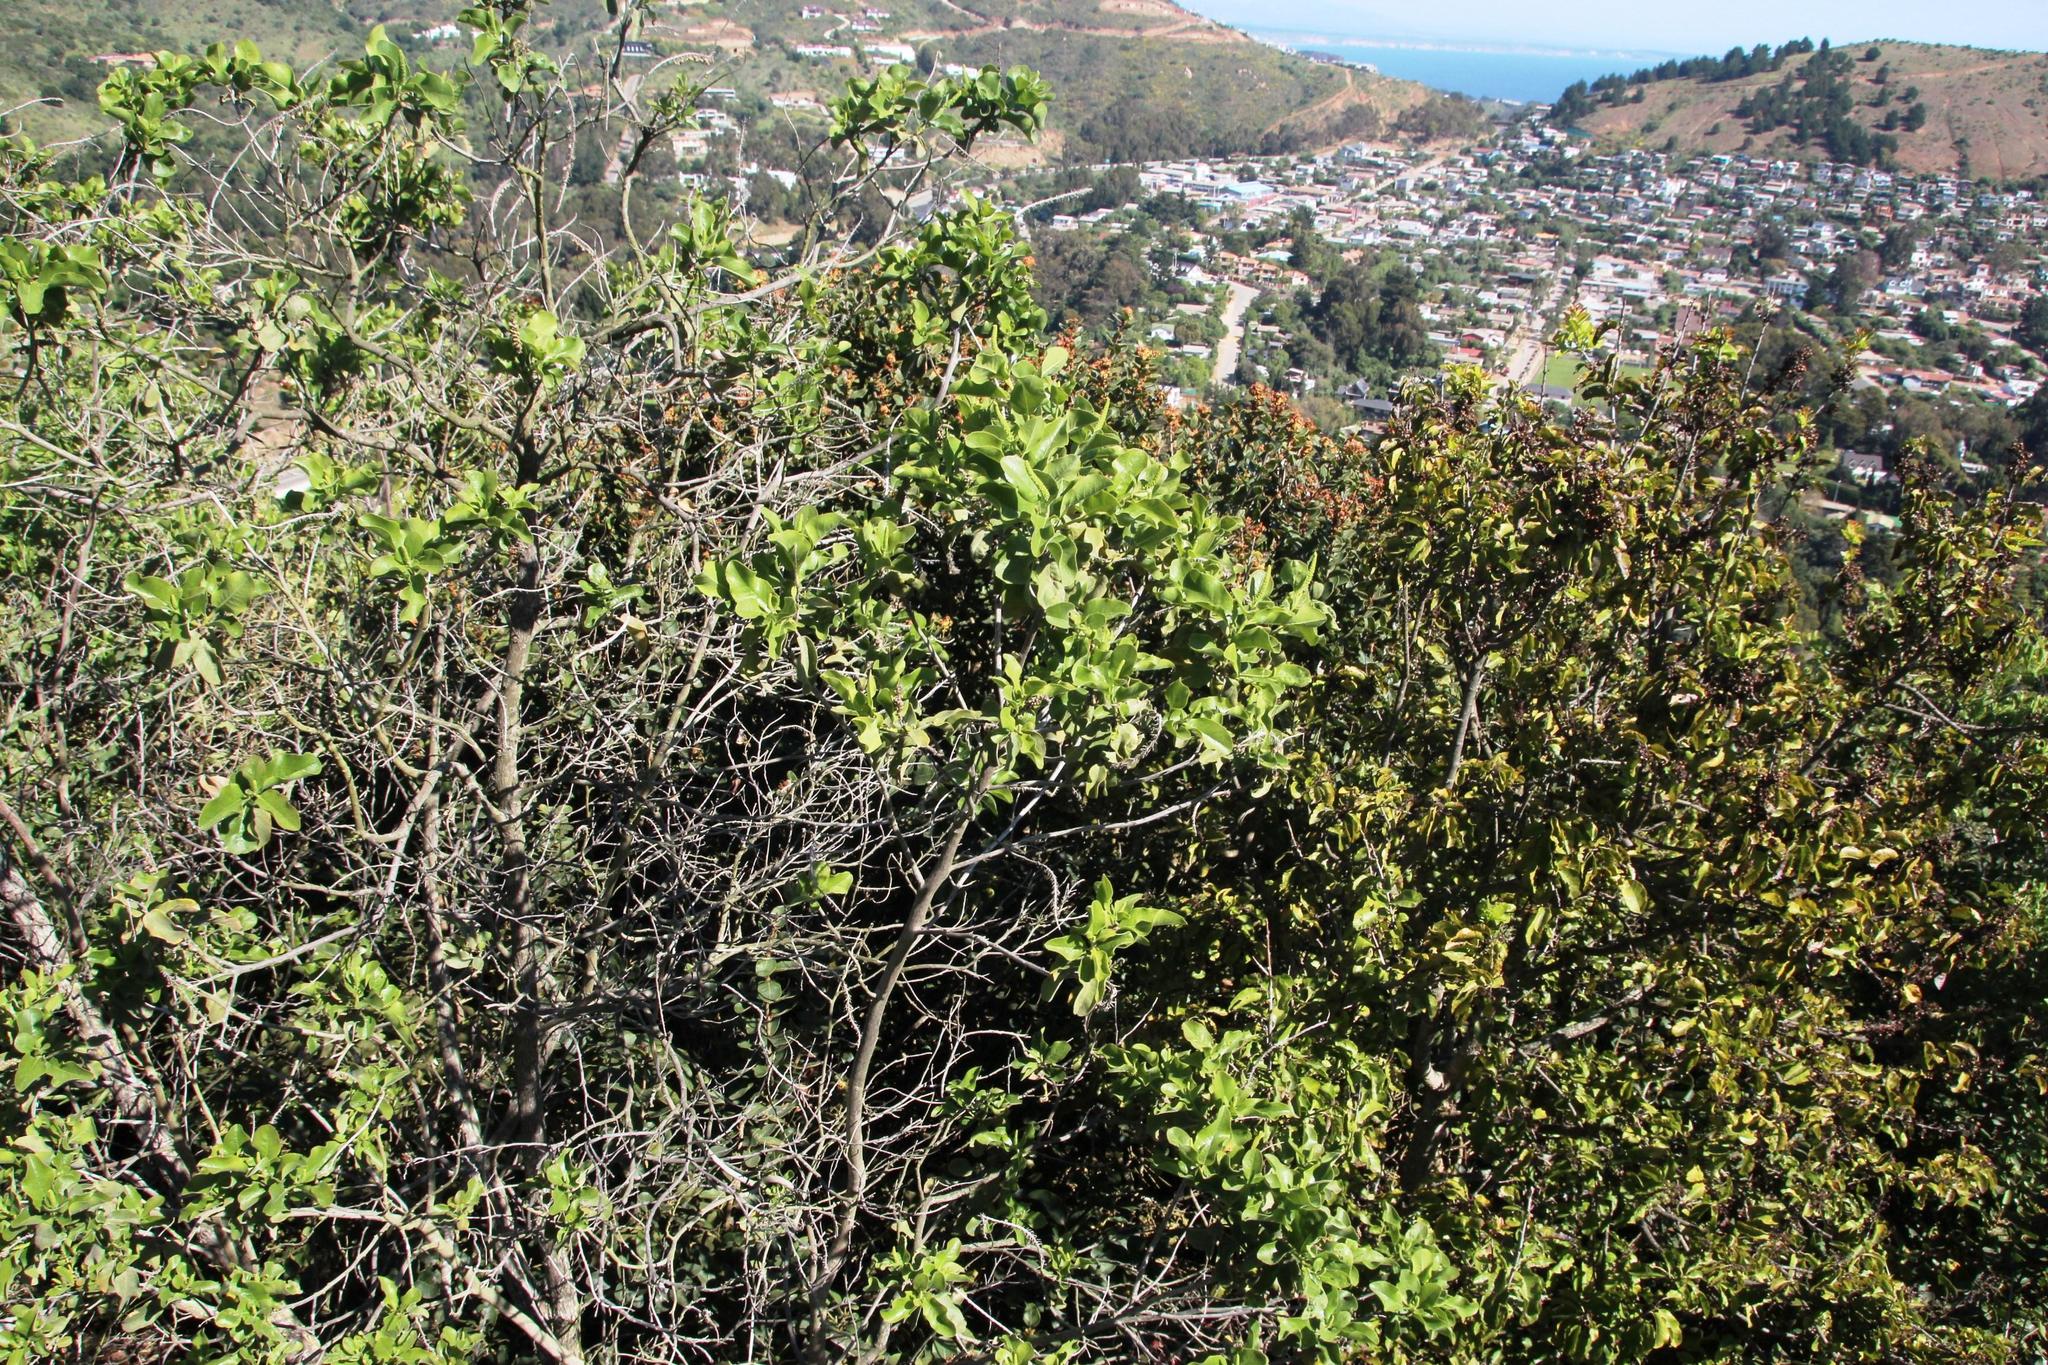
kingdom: Plantae
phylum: Tracheophyta
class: Magnoliopsida
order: Escalloniales
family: Escalloniaceae
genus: Escallonia
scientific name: Escallonia pulverulenta
